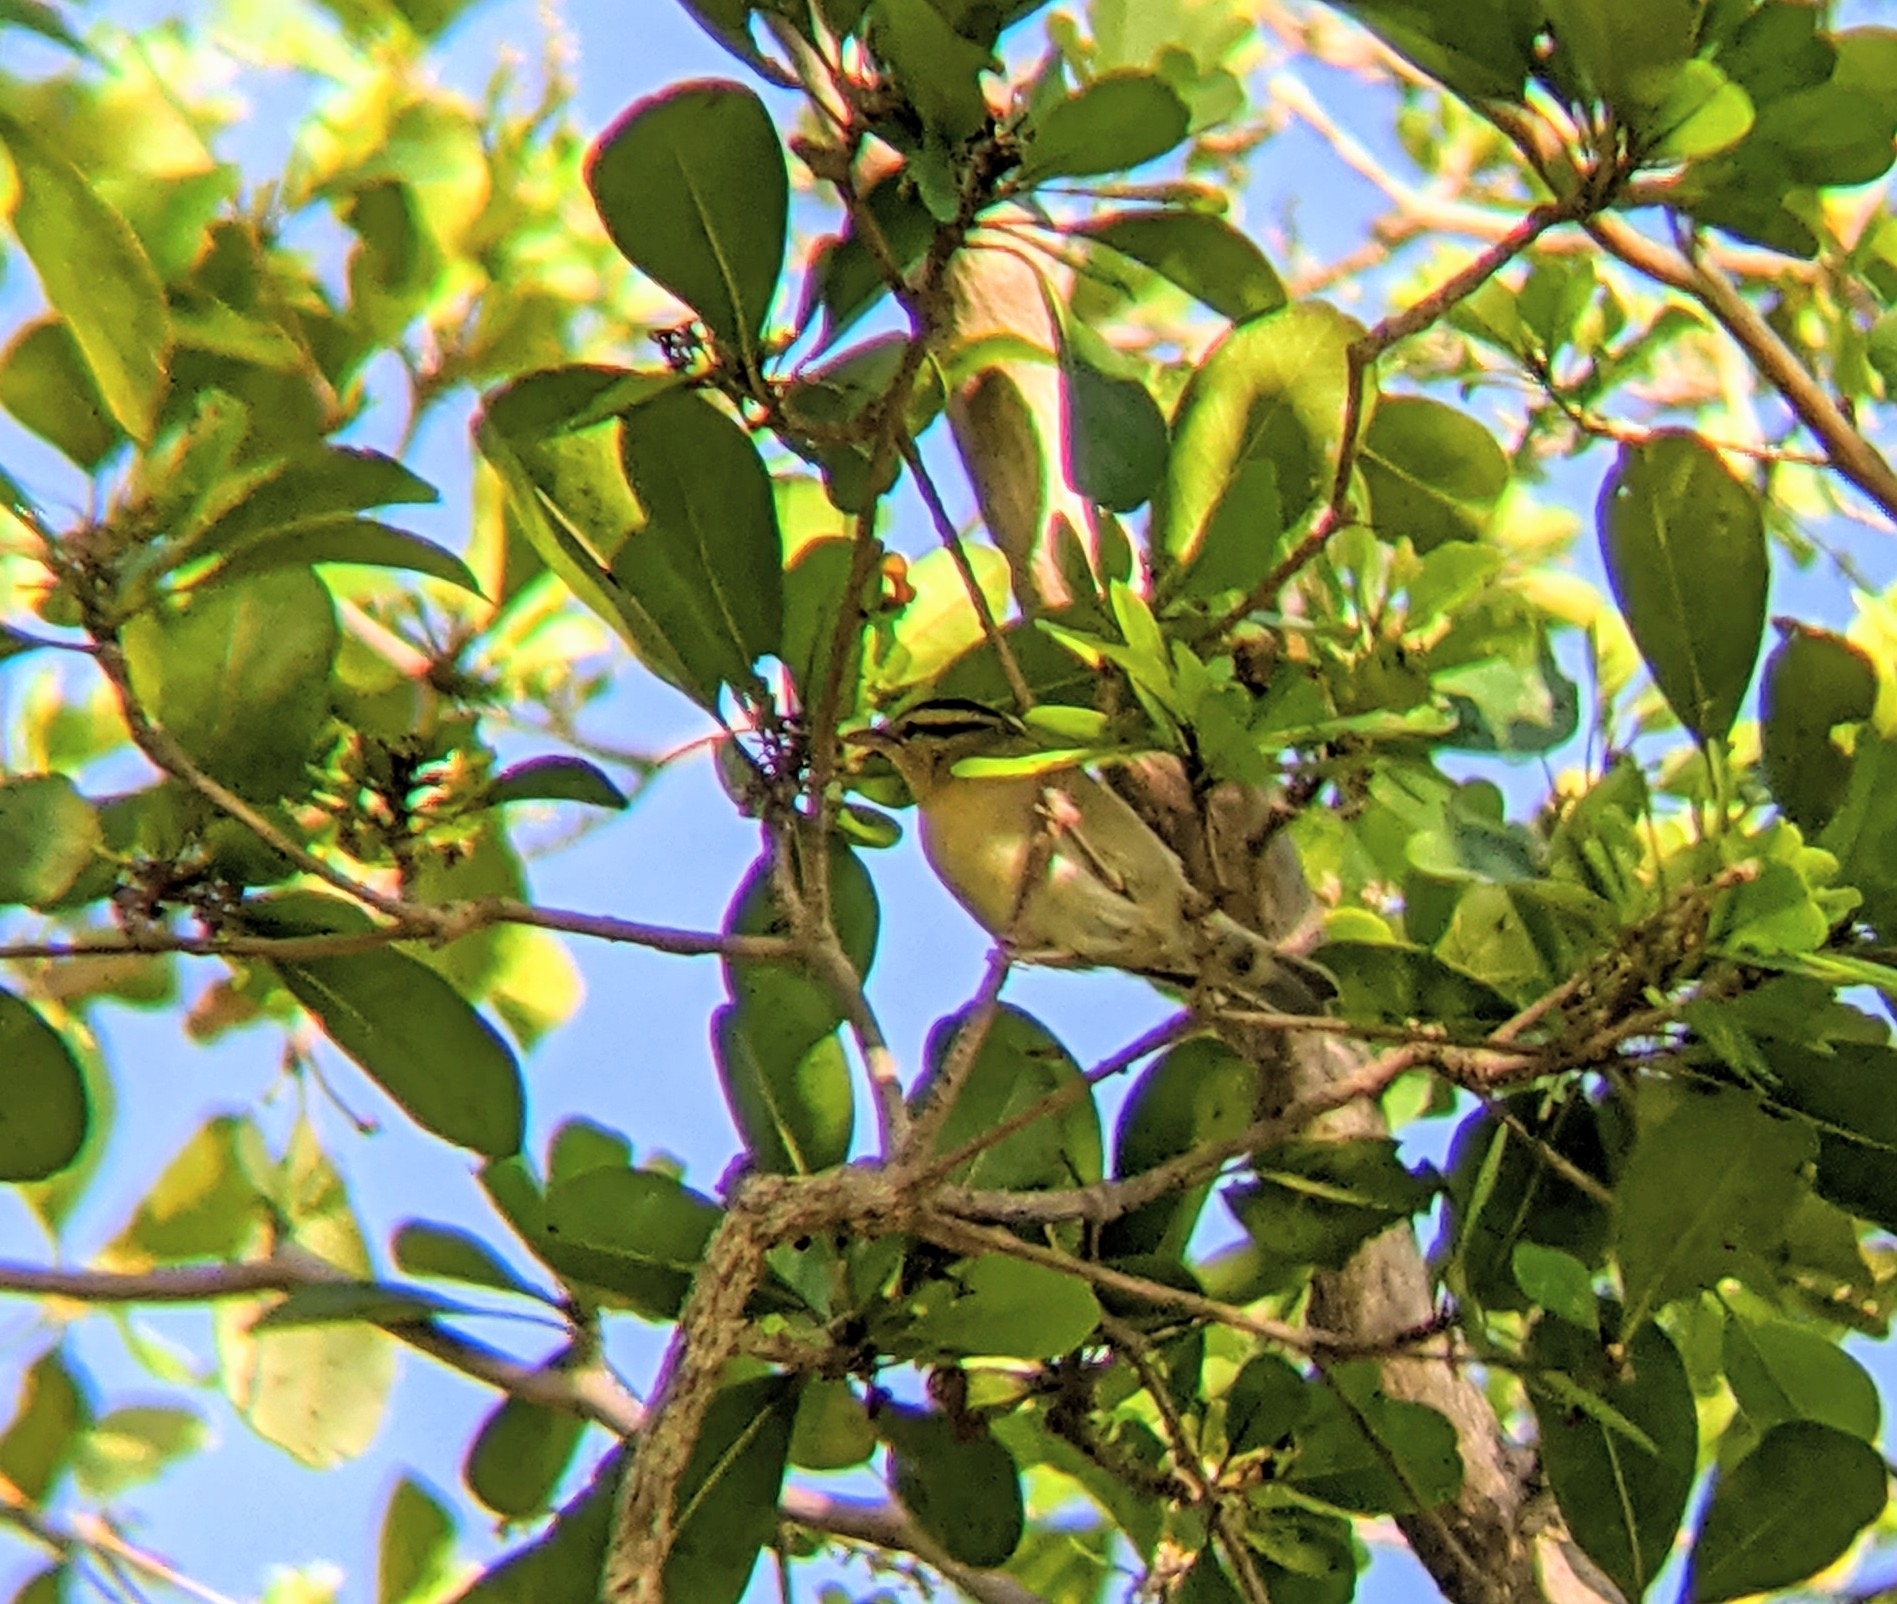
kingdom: Animalia
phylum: Chordata
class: Aves
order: Passeriformes
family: Parulidae
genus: Helmitheros
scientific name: Helmitheros vermivorum
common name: Worm-eating warbler
